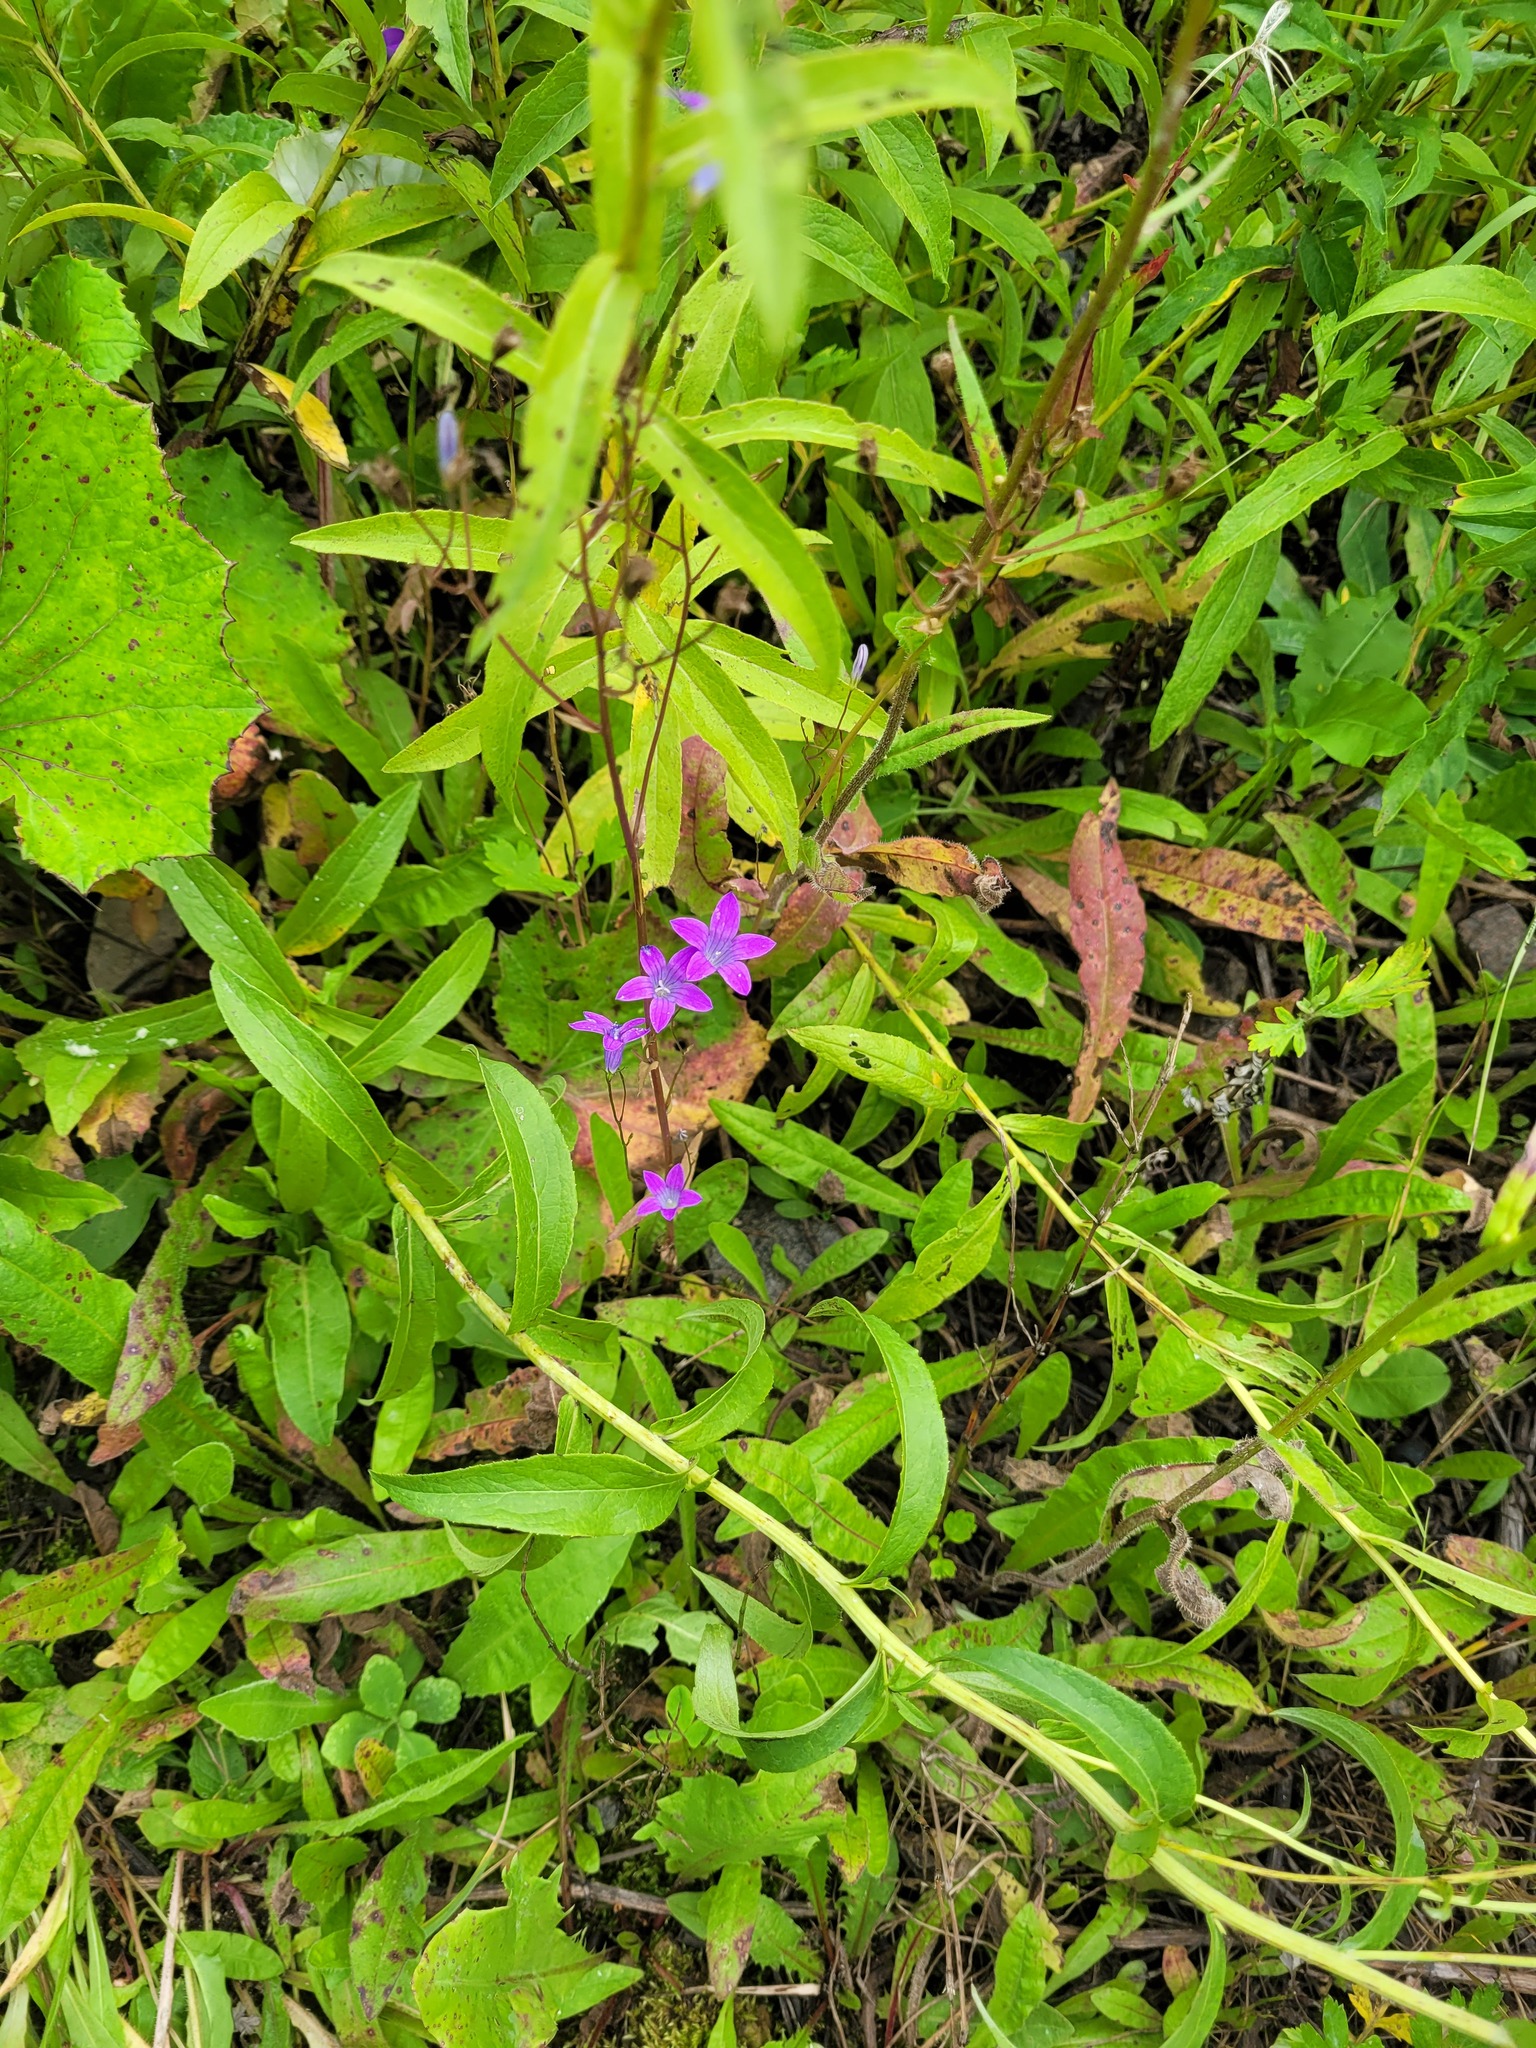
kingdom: Plantae
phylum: Tracheophyta
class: Magnoliopsida
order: Asterales
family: Campanulaceae
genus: Campanula
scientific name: Campanula patula
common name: Spreading bellflower
